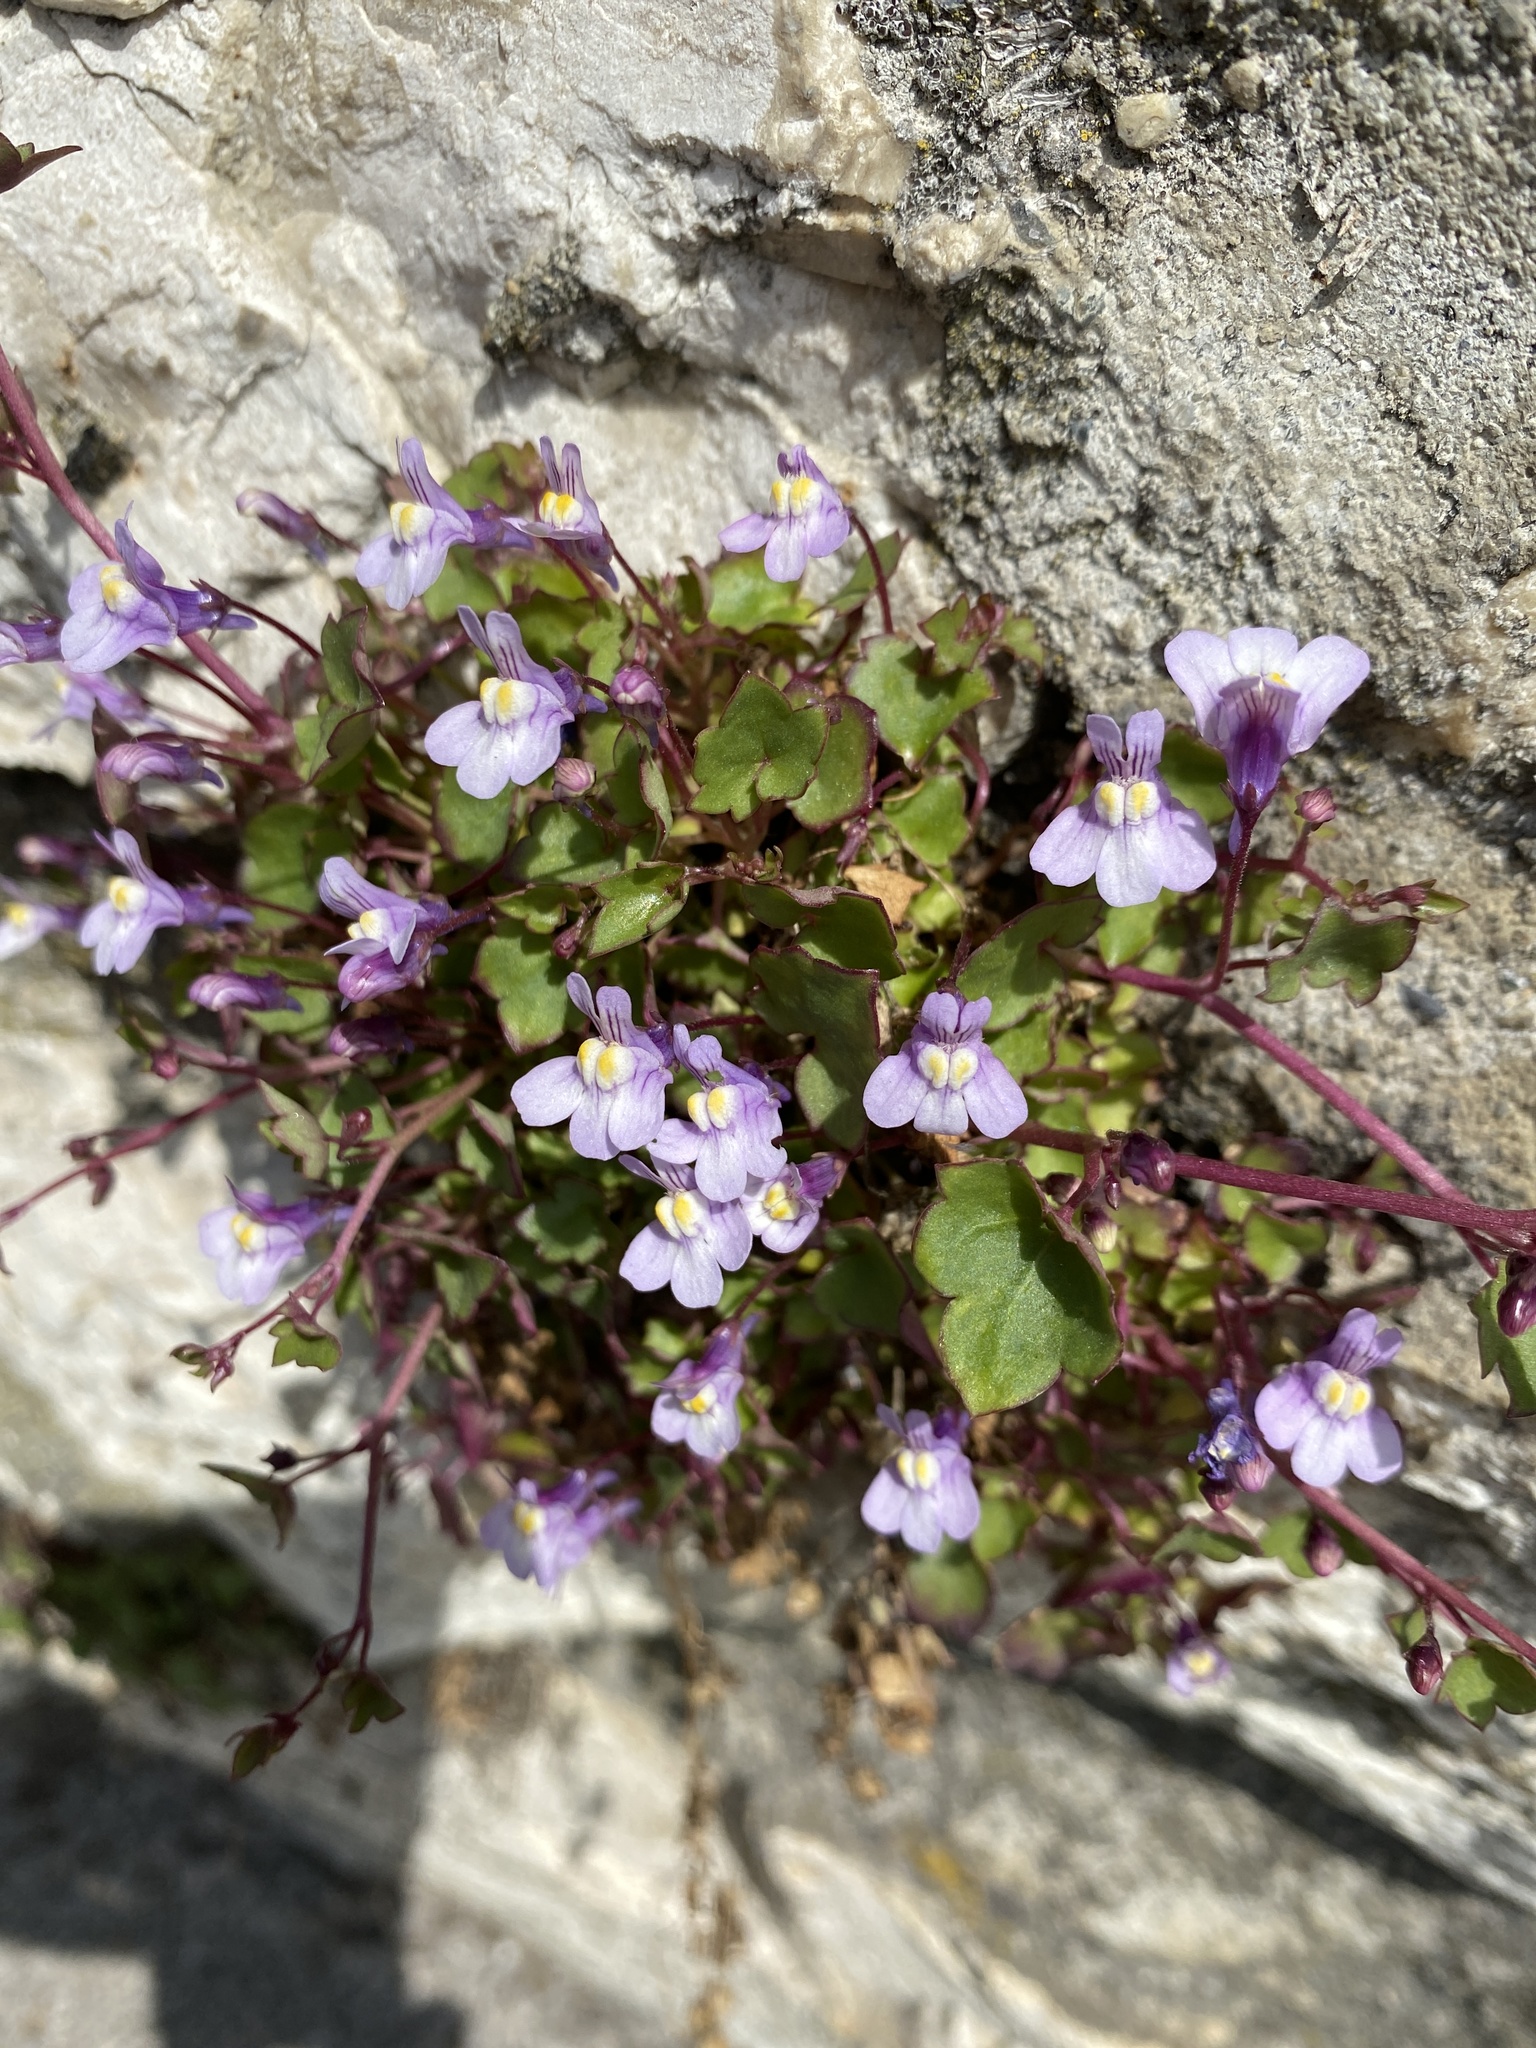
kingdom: Plantae
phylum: Tracheophyta
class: Magnoliopsida
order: Lamiales
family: Plantaginaceae
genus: Cymbalaria
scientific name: Cymbalaria muralis
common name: Ivy-leaved toadflax
